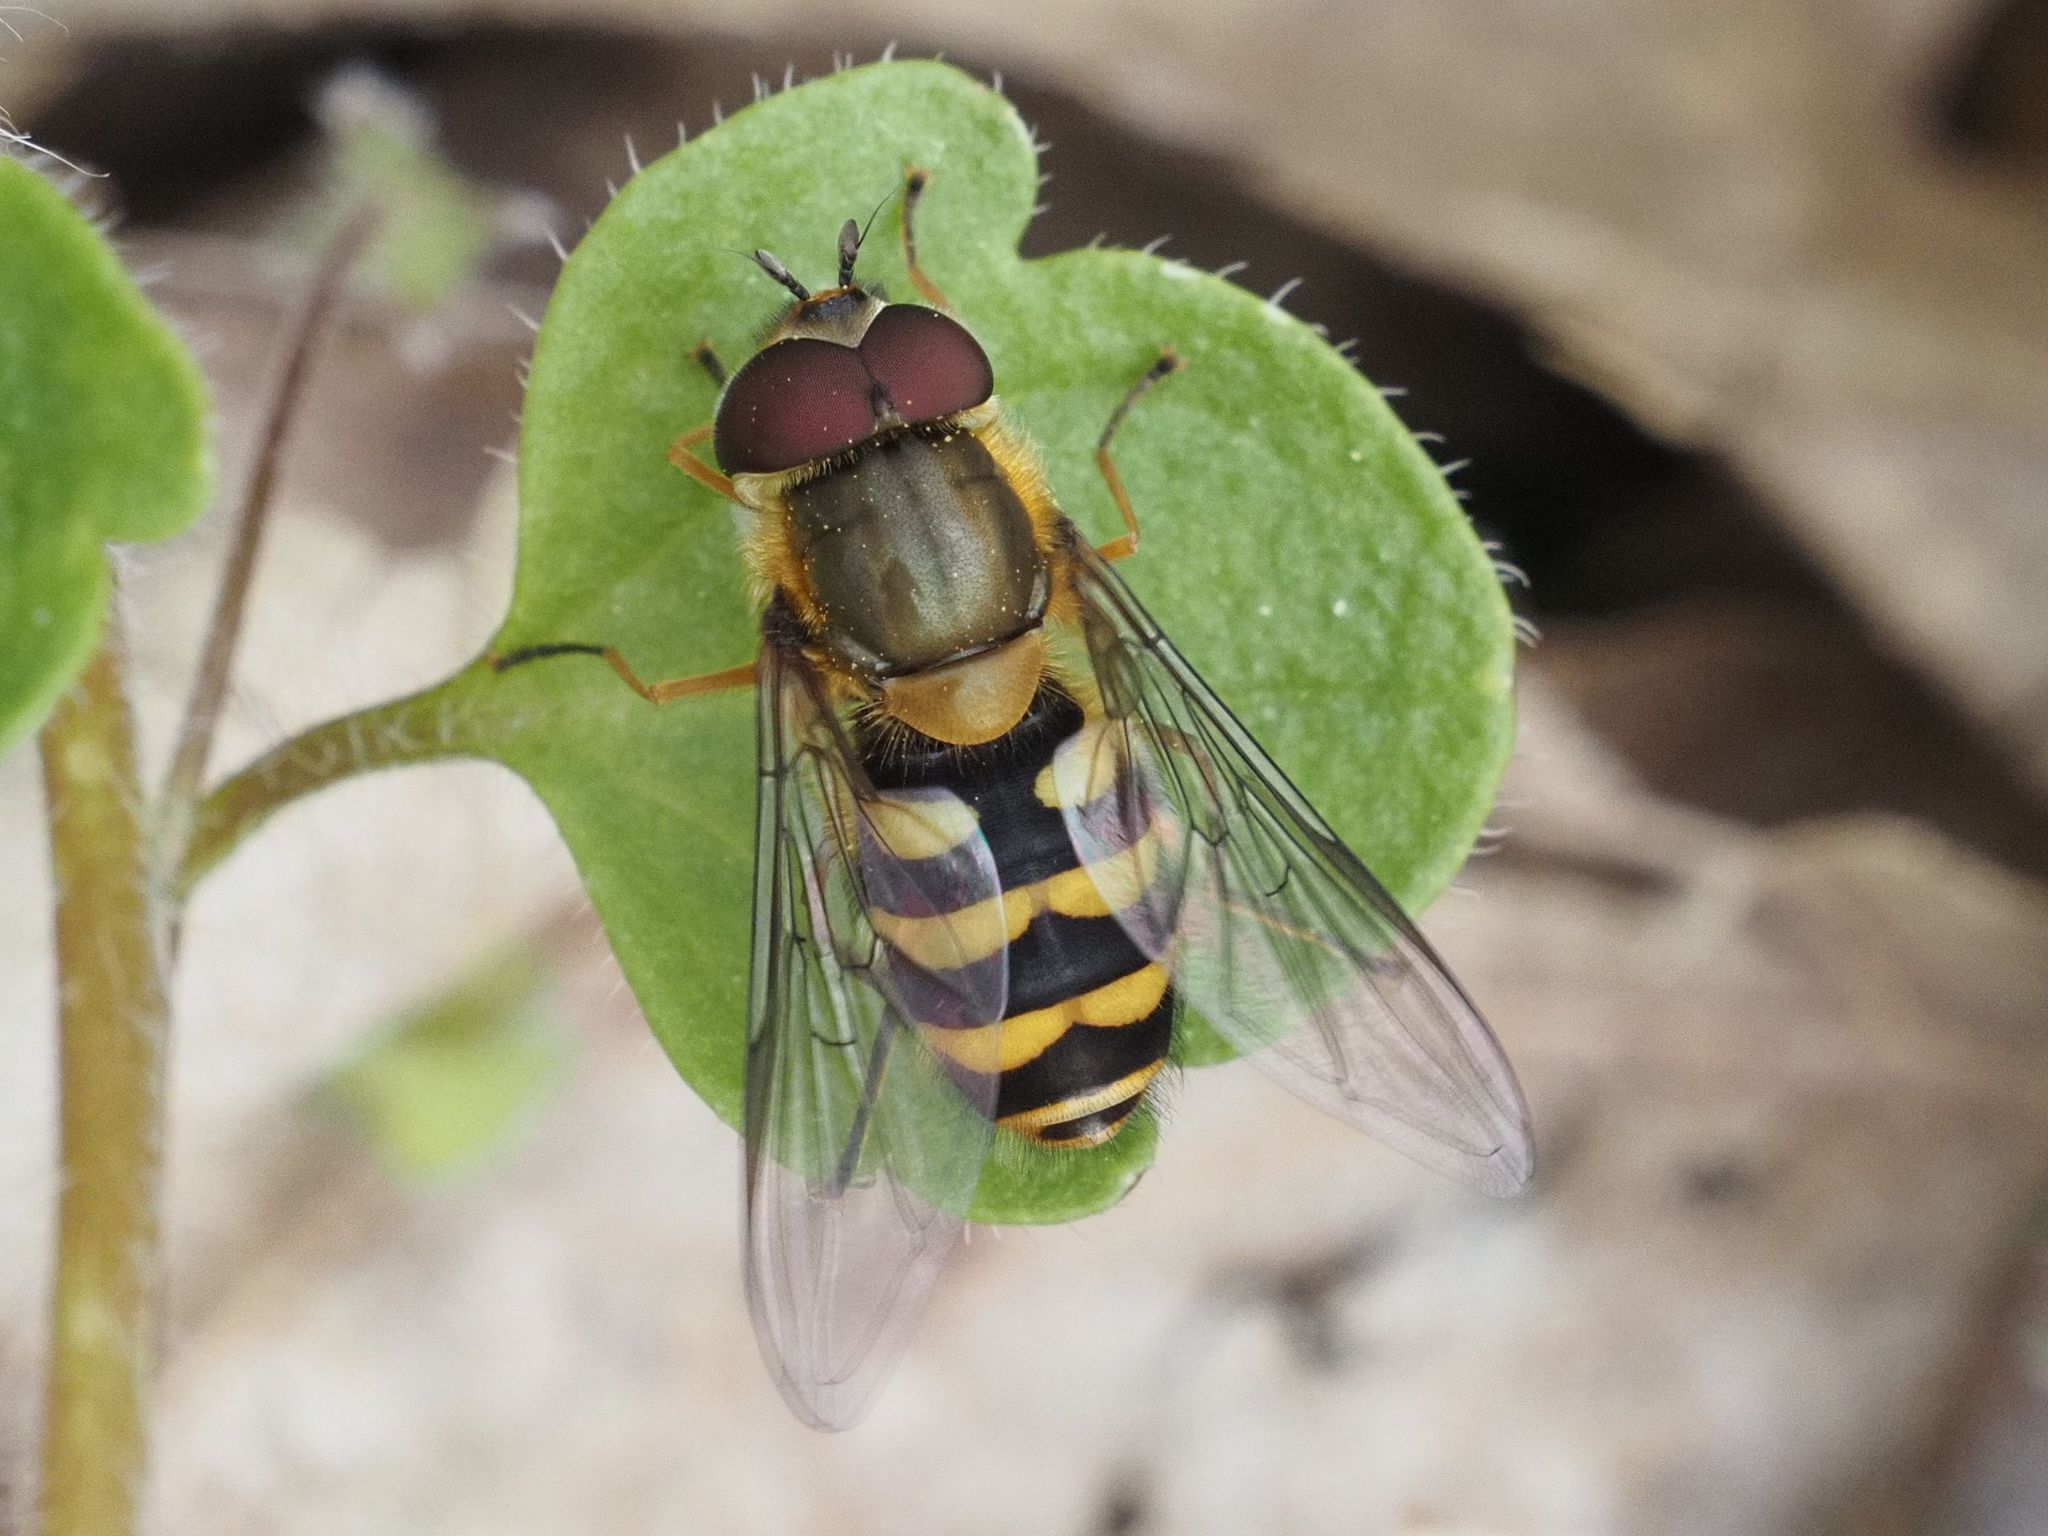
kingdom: Animalia
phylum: Arthropoda
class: Insecta
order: Diptera
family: Syrphidae
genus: Syrphus
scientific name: Syrphus torvus
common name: Hairy-eyed flower fly
